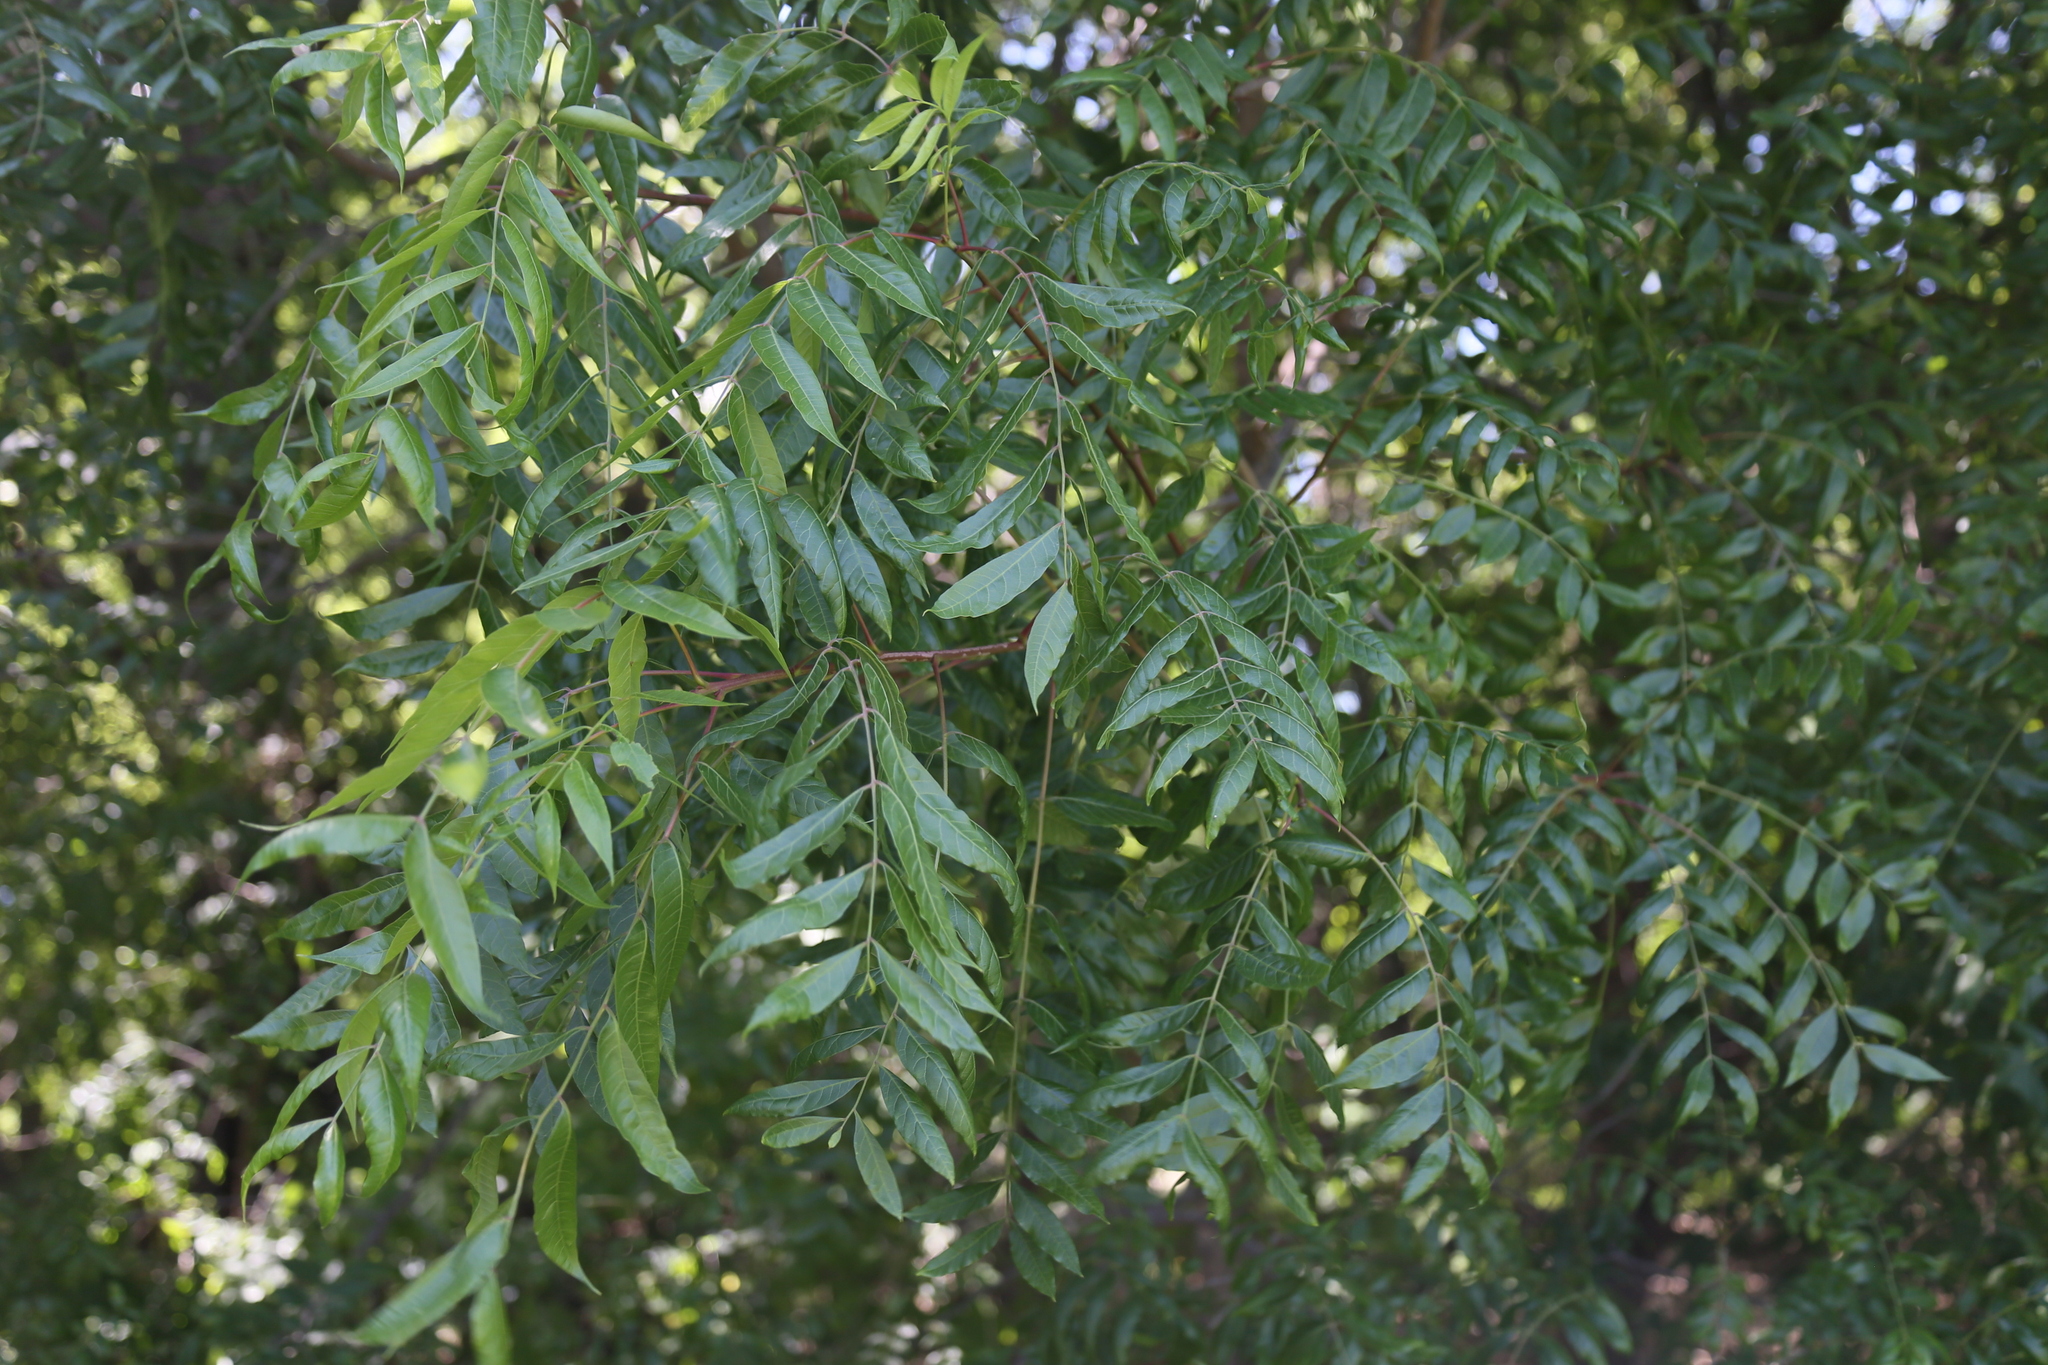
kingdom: Plantae
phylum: Tracheophyta
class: Magnoliopsida
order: Fagales
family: Juglandaceae
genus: Carya
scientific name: Carya illinoinensis
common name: Pecan
